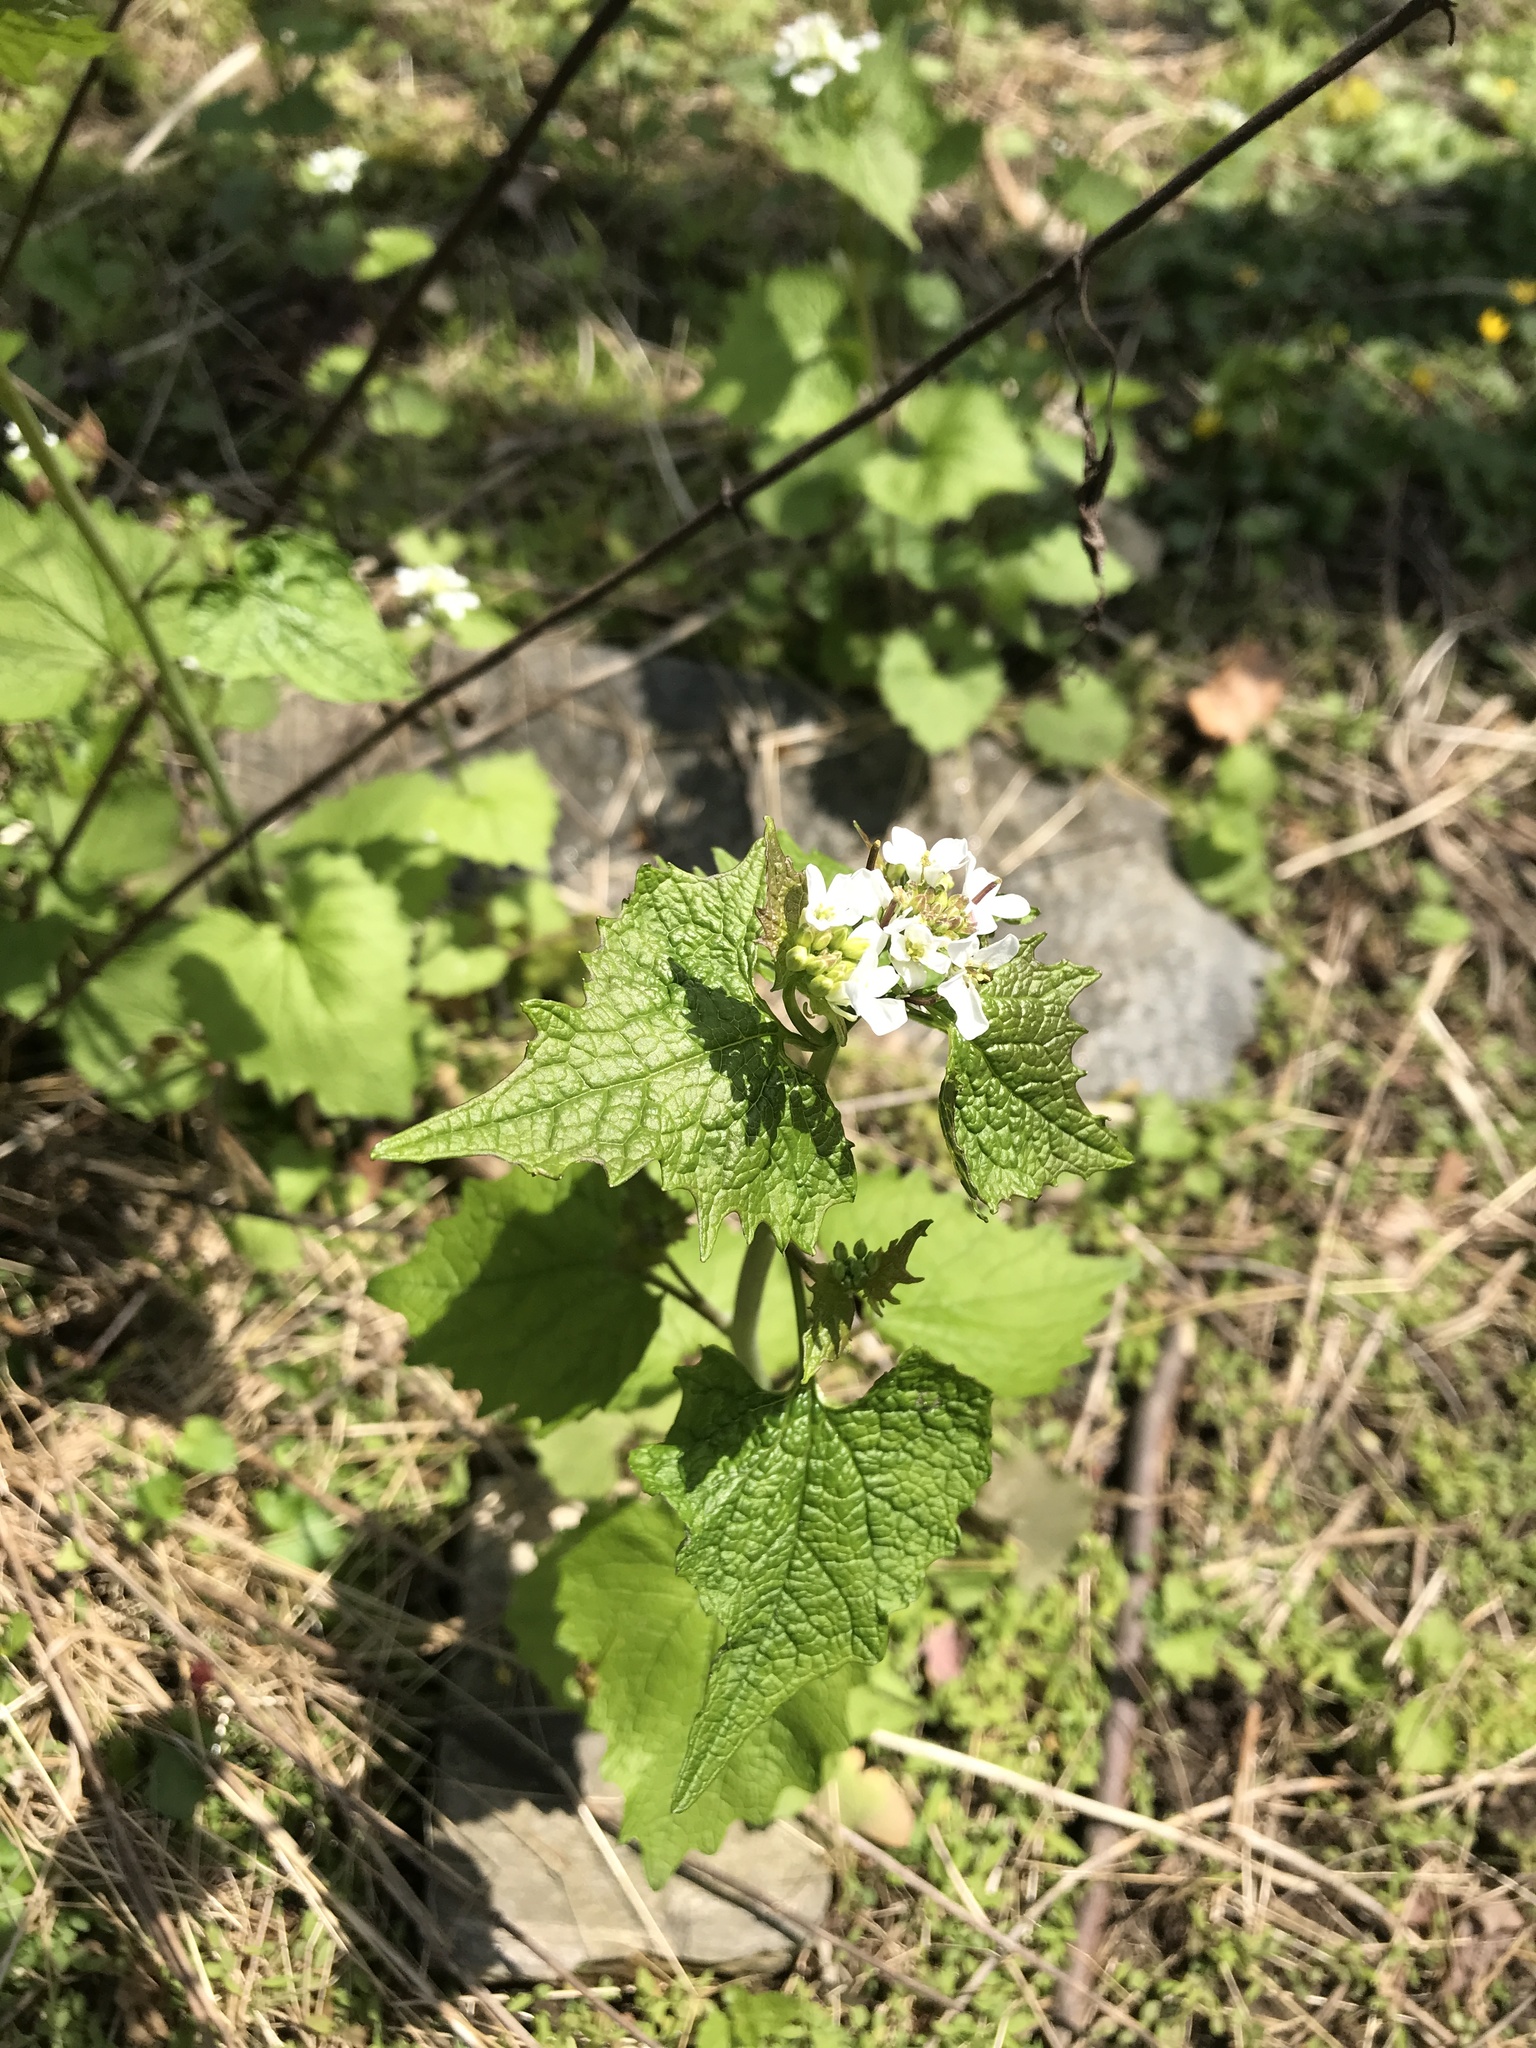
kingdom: Plantae
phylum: Tracheophyta
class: Magnoliopsida
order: Brassicales
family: Brassicaceae
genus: Alliaria
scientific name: Alliaria petiolata
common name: Garlic mustard
